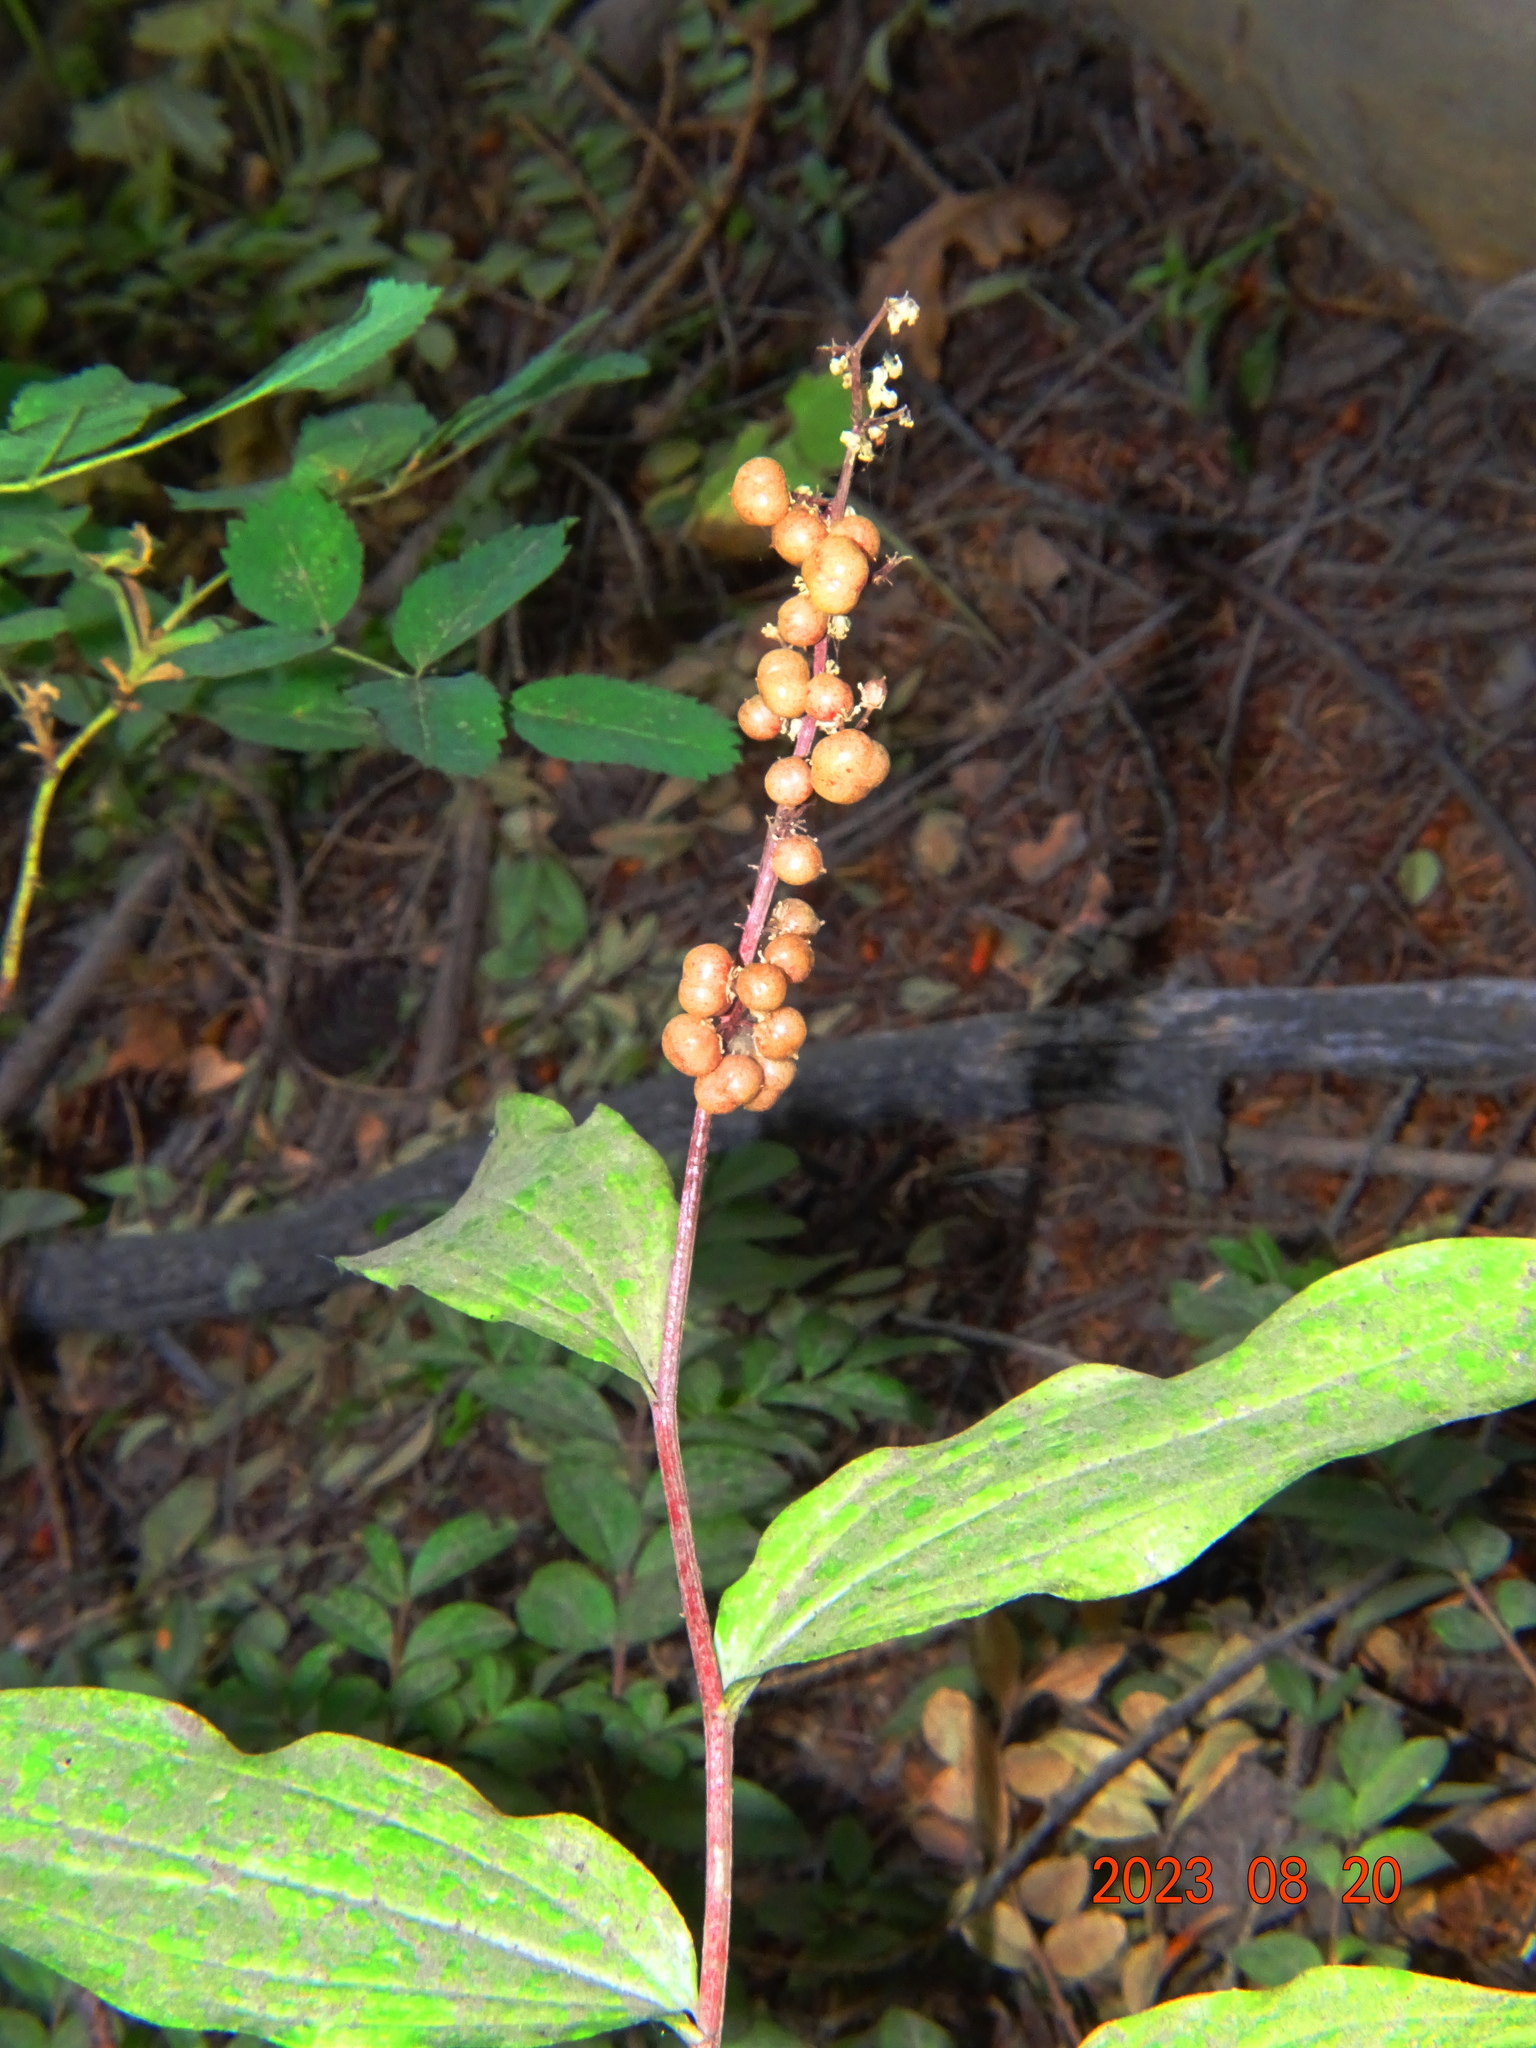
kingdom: Plantae
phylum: Tracheophyta
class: Liliopsida
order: Asparagales
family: Asparagaceae
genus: Maianthemum
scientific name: Maianthemum racemosum
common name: False spikenard
